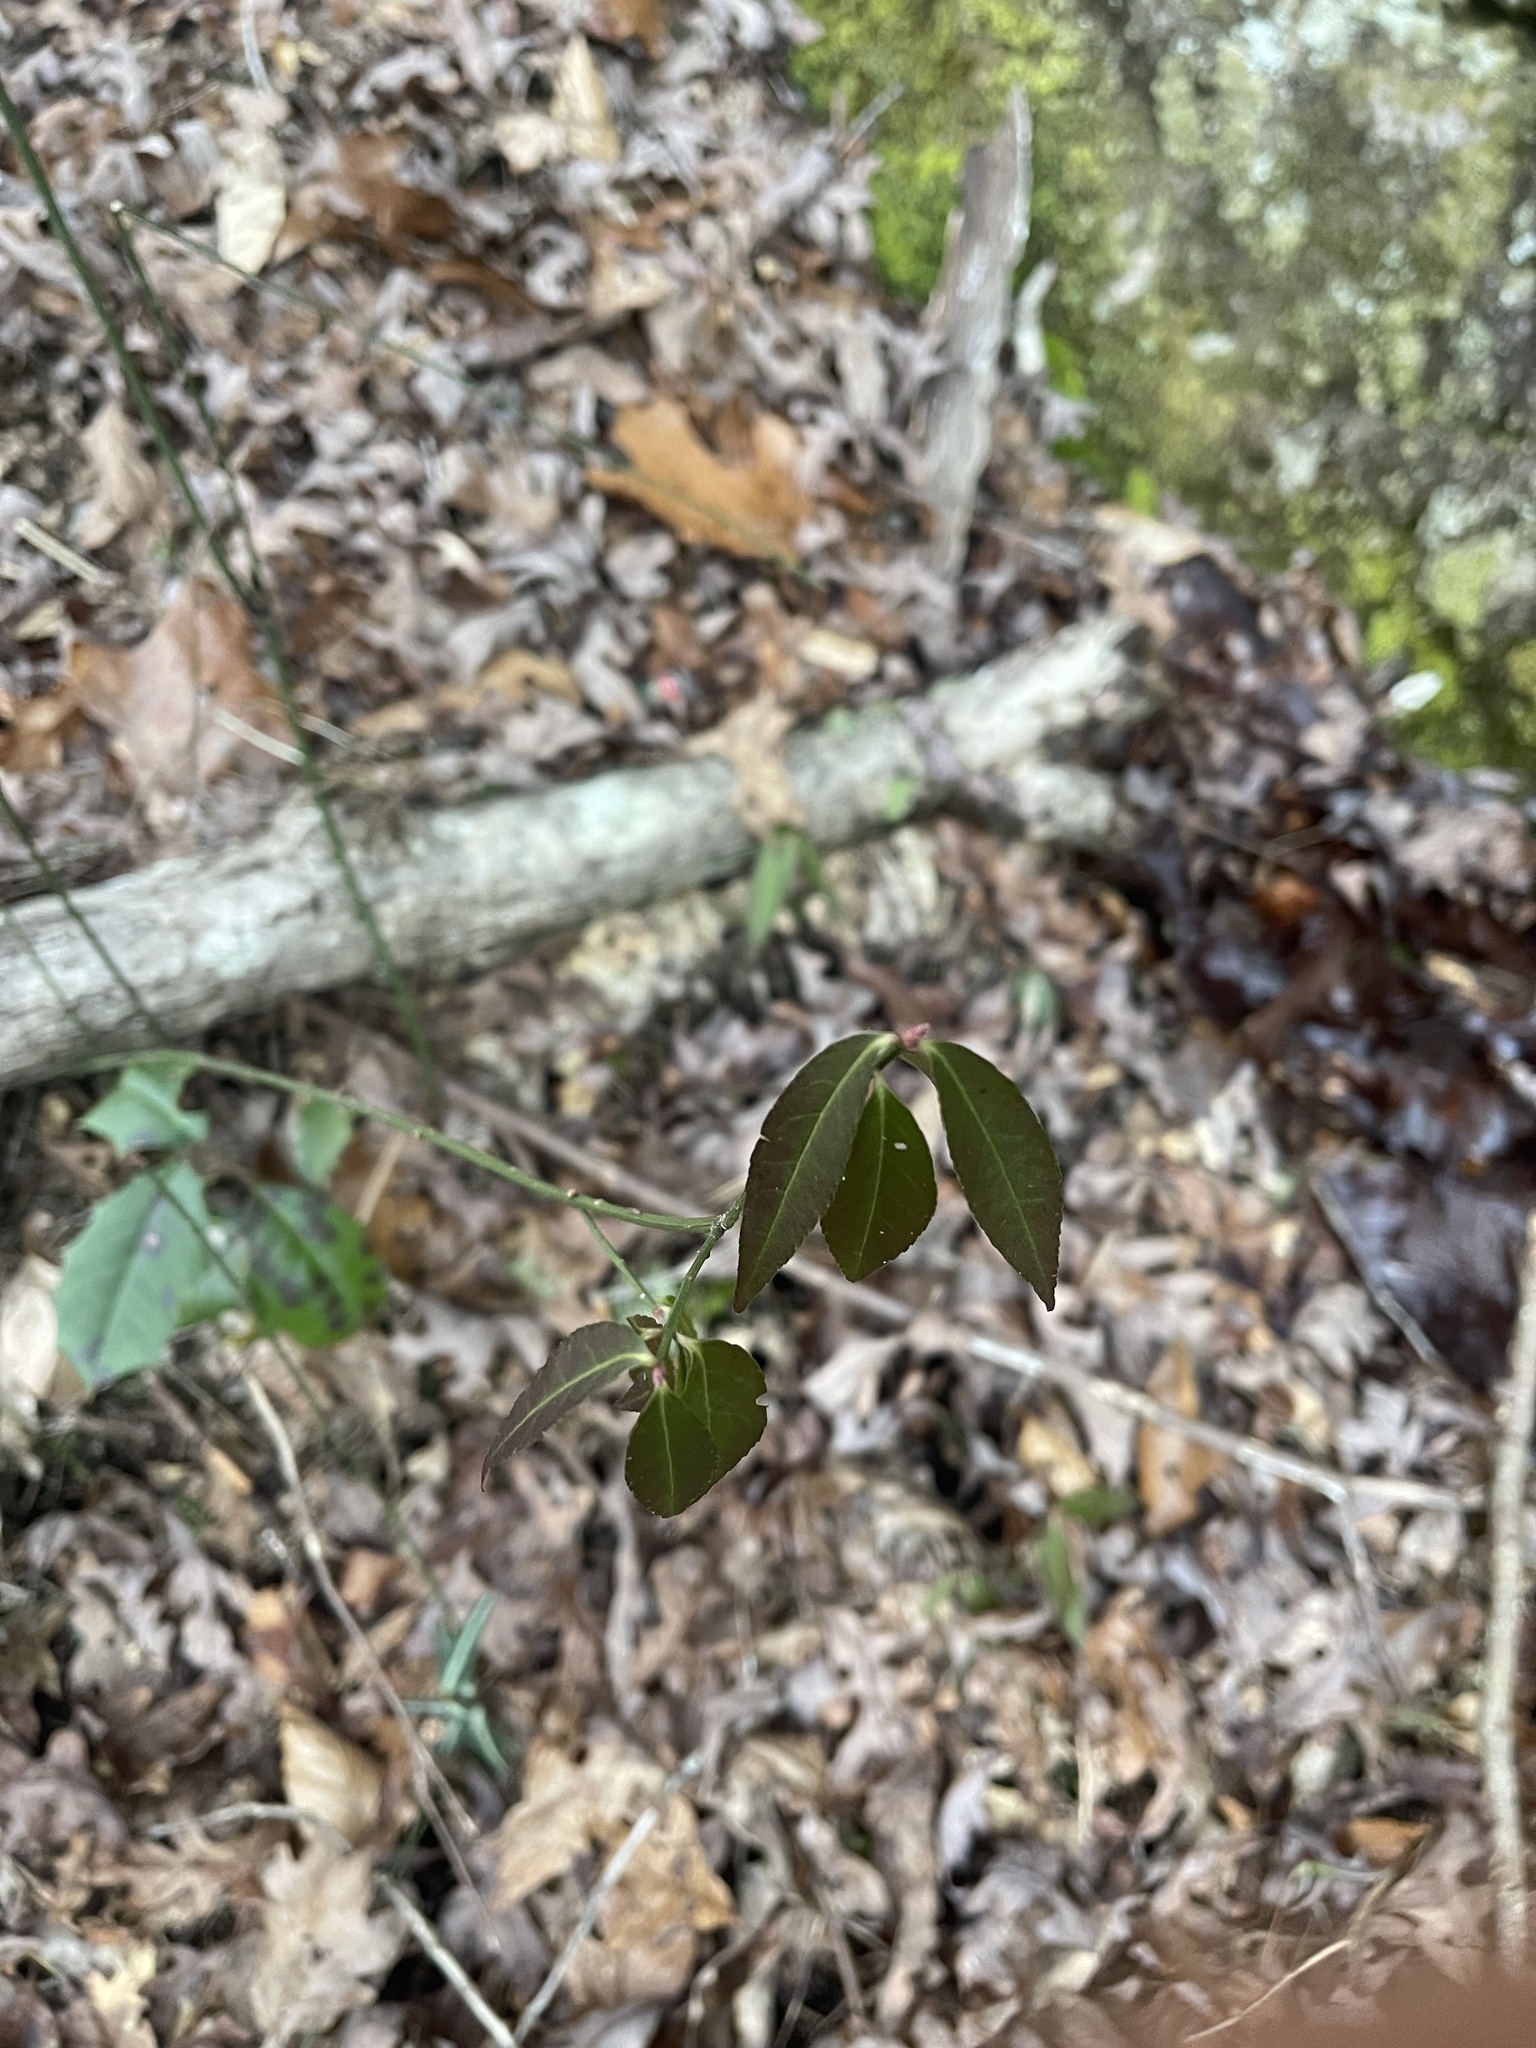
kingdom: Plantae
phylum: Tracheophyta
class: Magnoliopsida
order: Celastrales
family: Celastraceae
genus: Euonymus
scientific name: Euonymus americanus
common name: Bursting-heart
